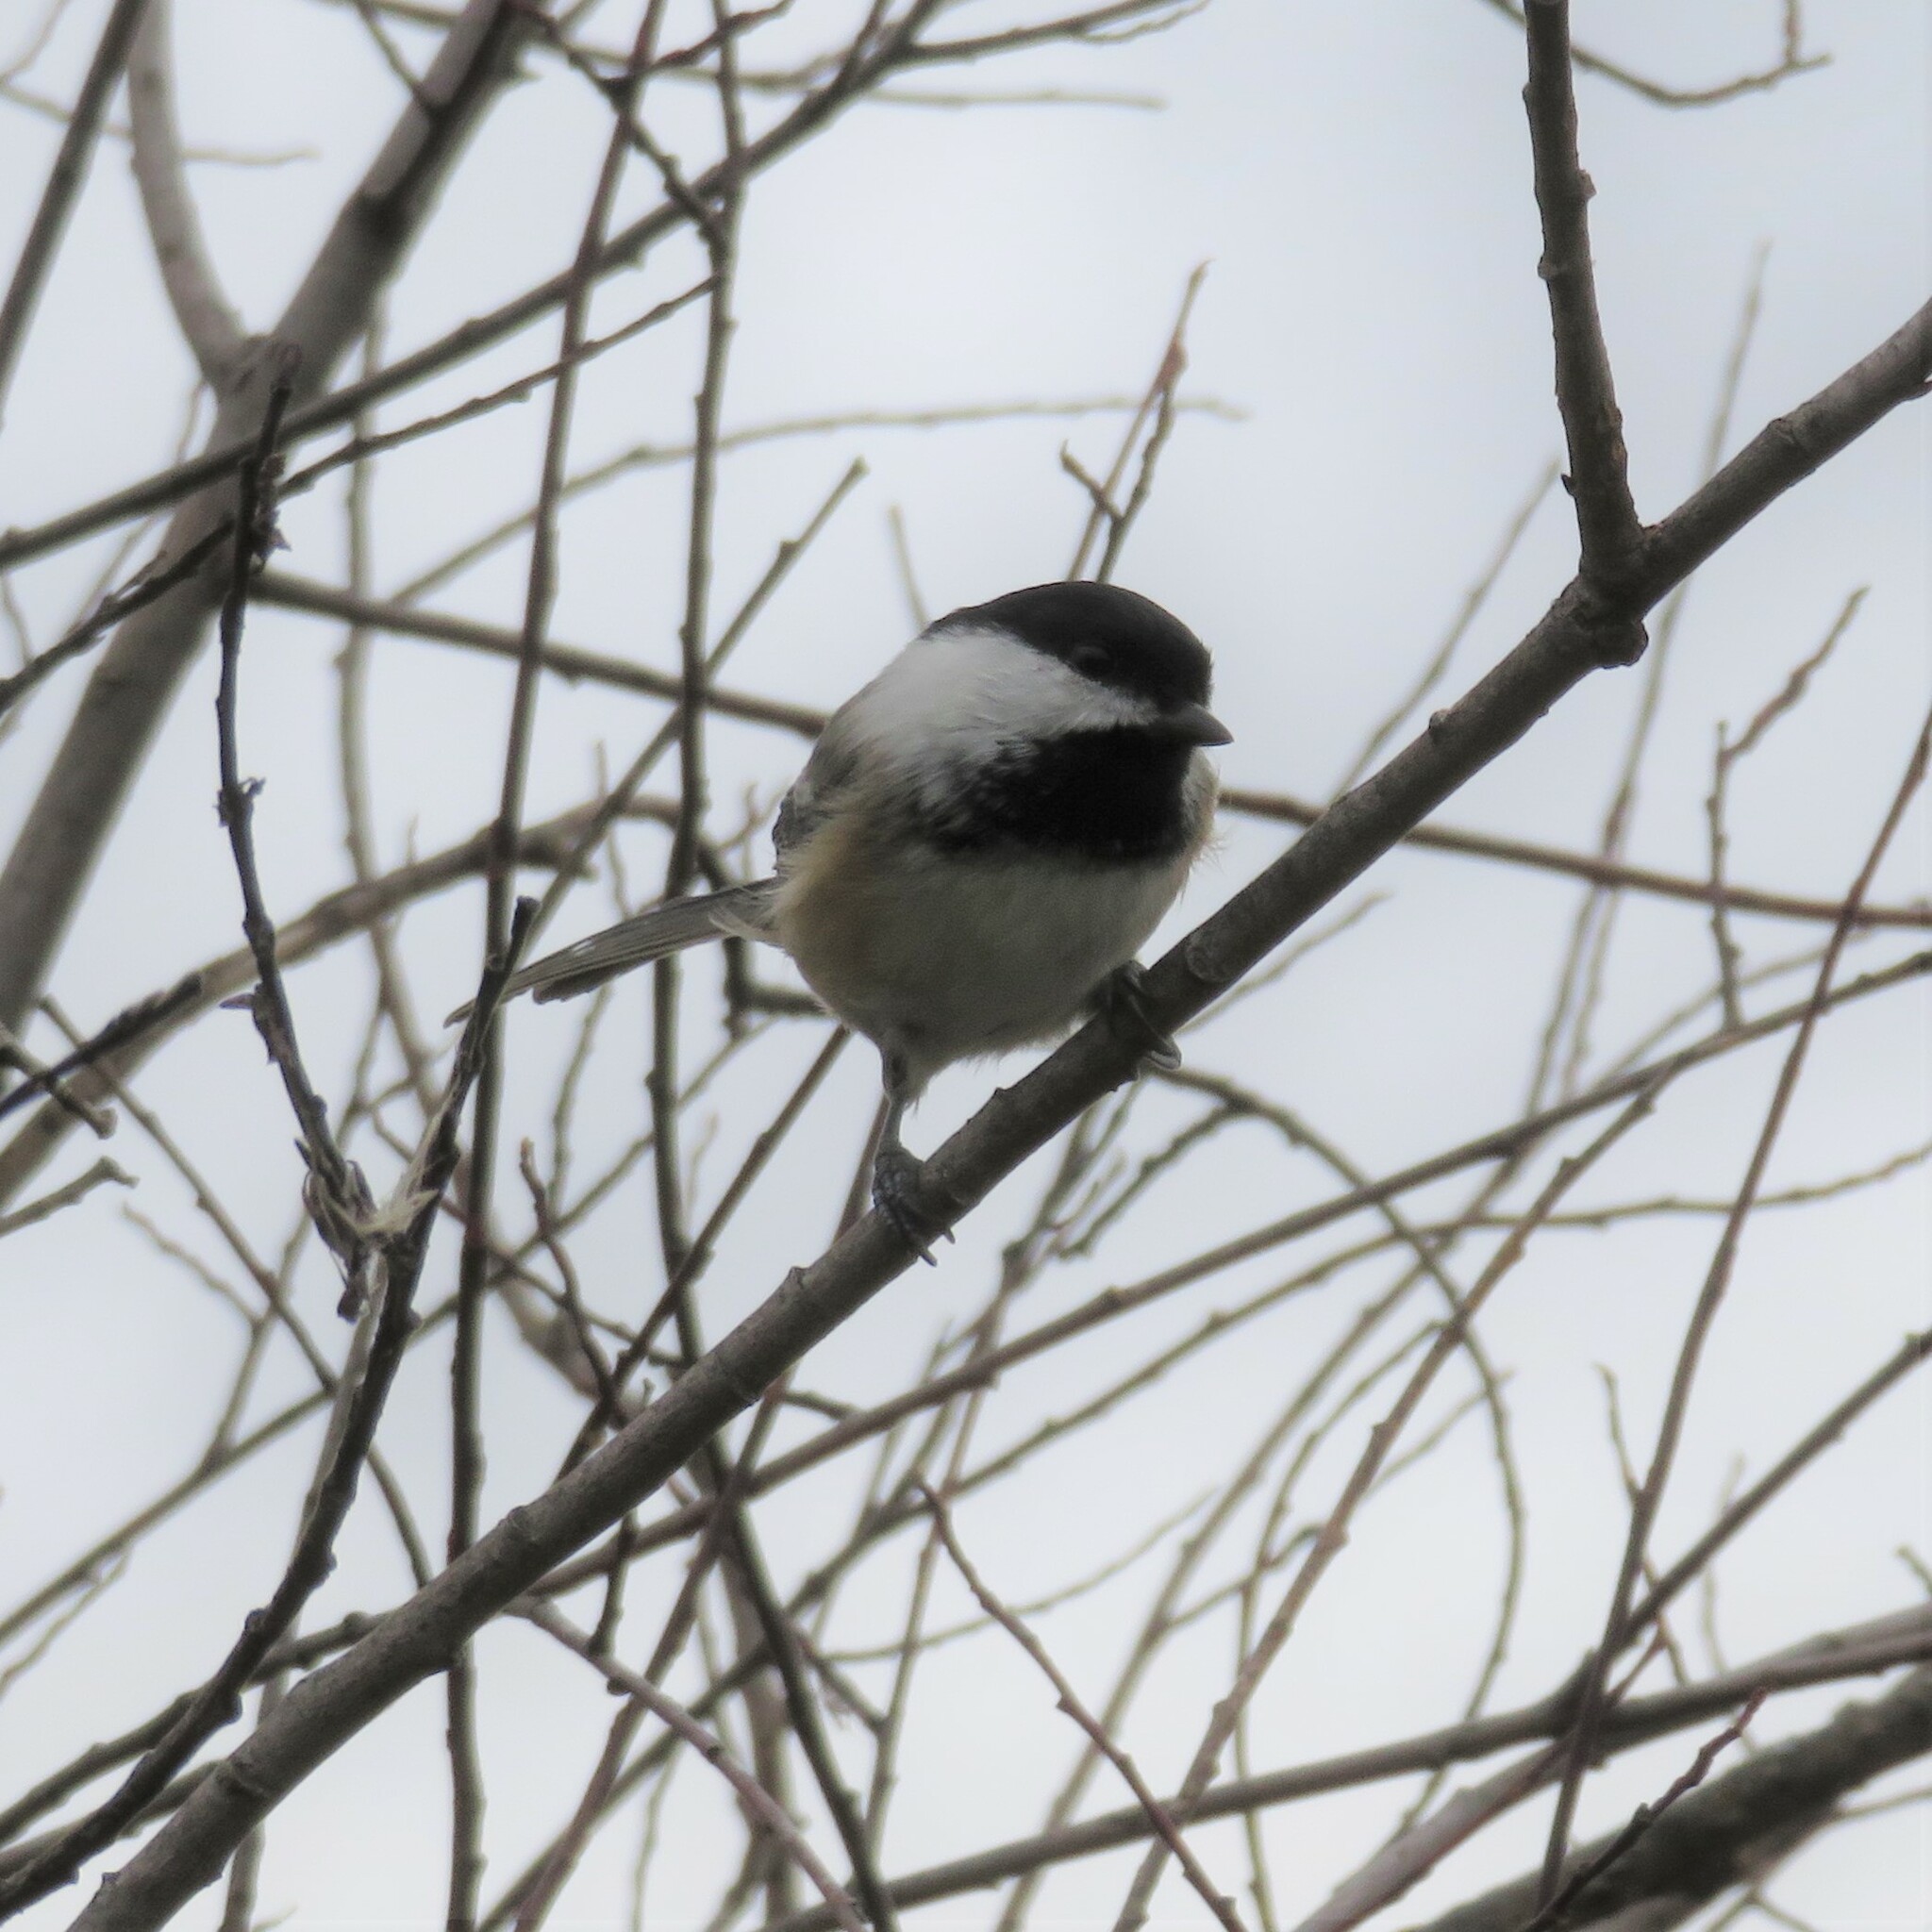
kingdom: Animalia
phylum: Chordata
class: Aves
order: Passeriformes
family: Paridae
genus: Poecile
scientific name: Poecile atricapillus
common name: Black-capped chickadee
